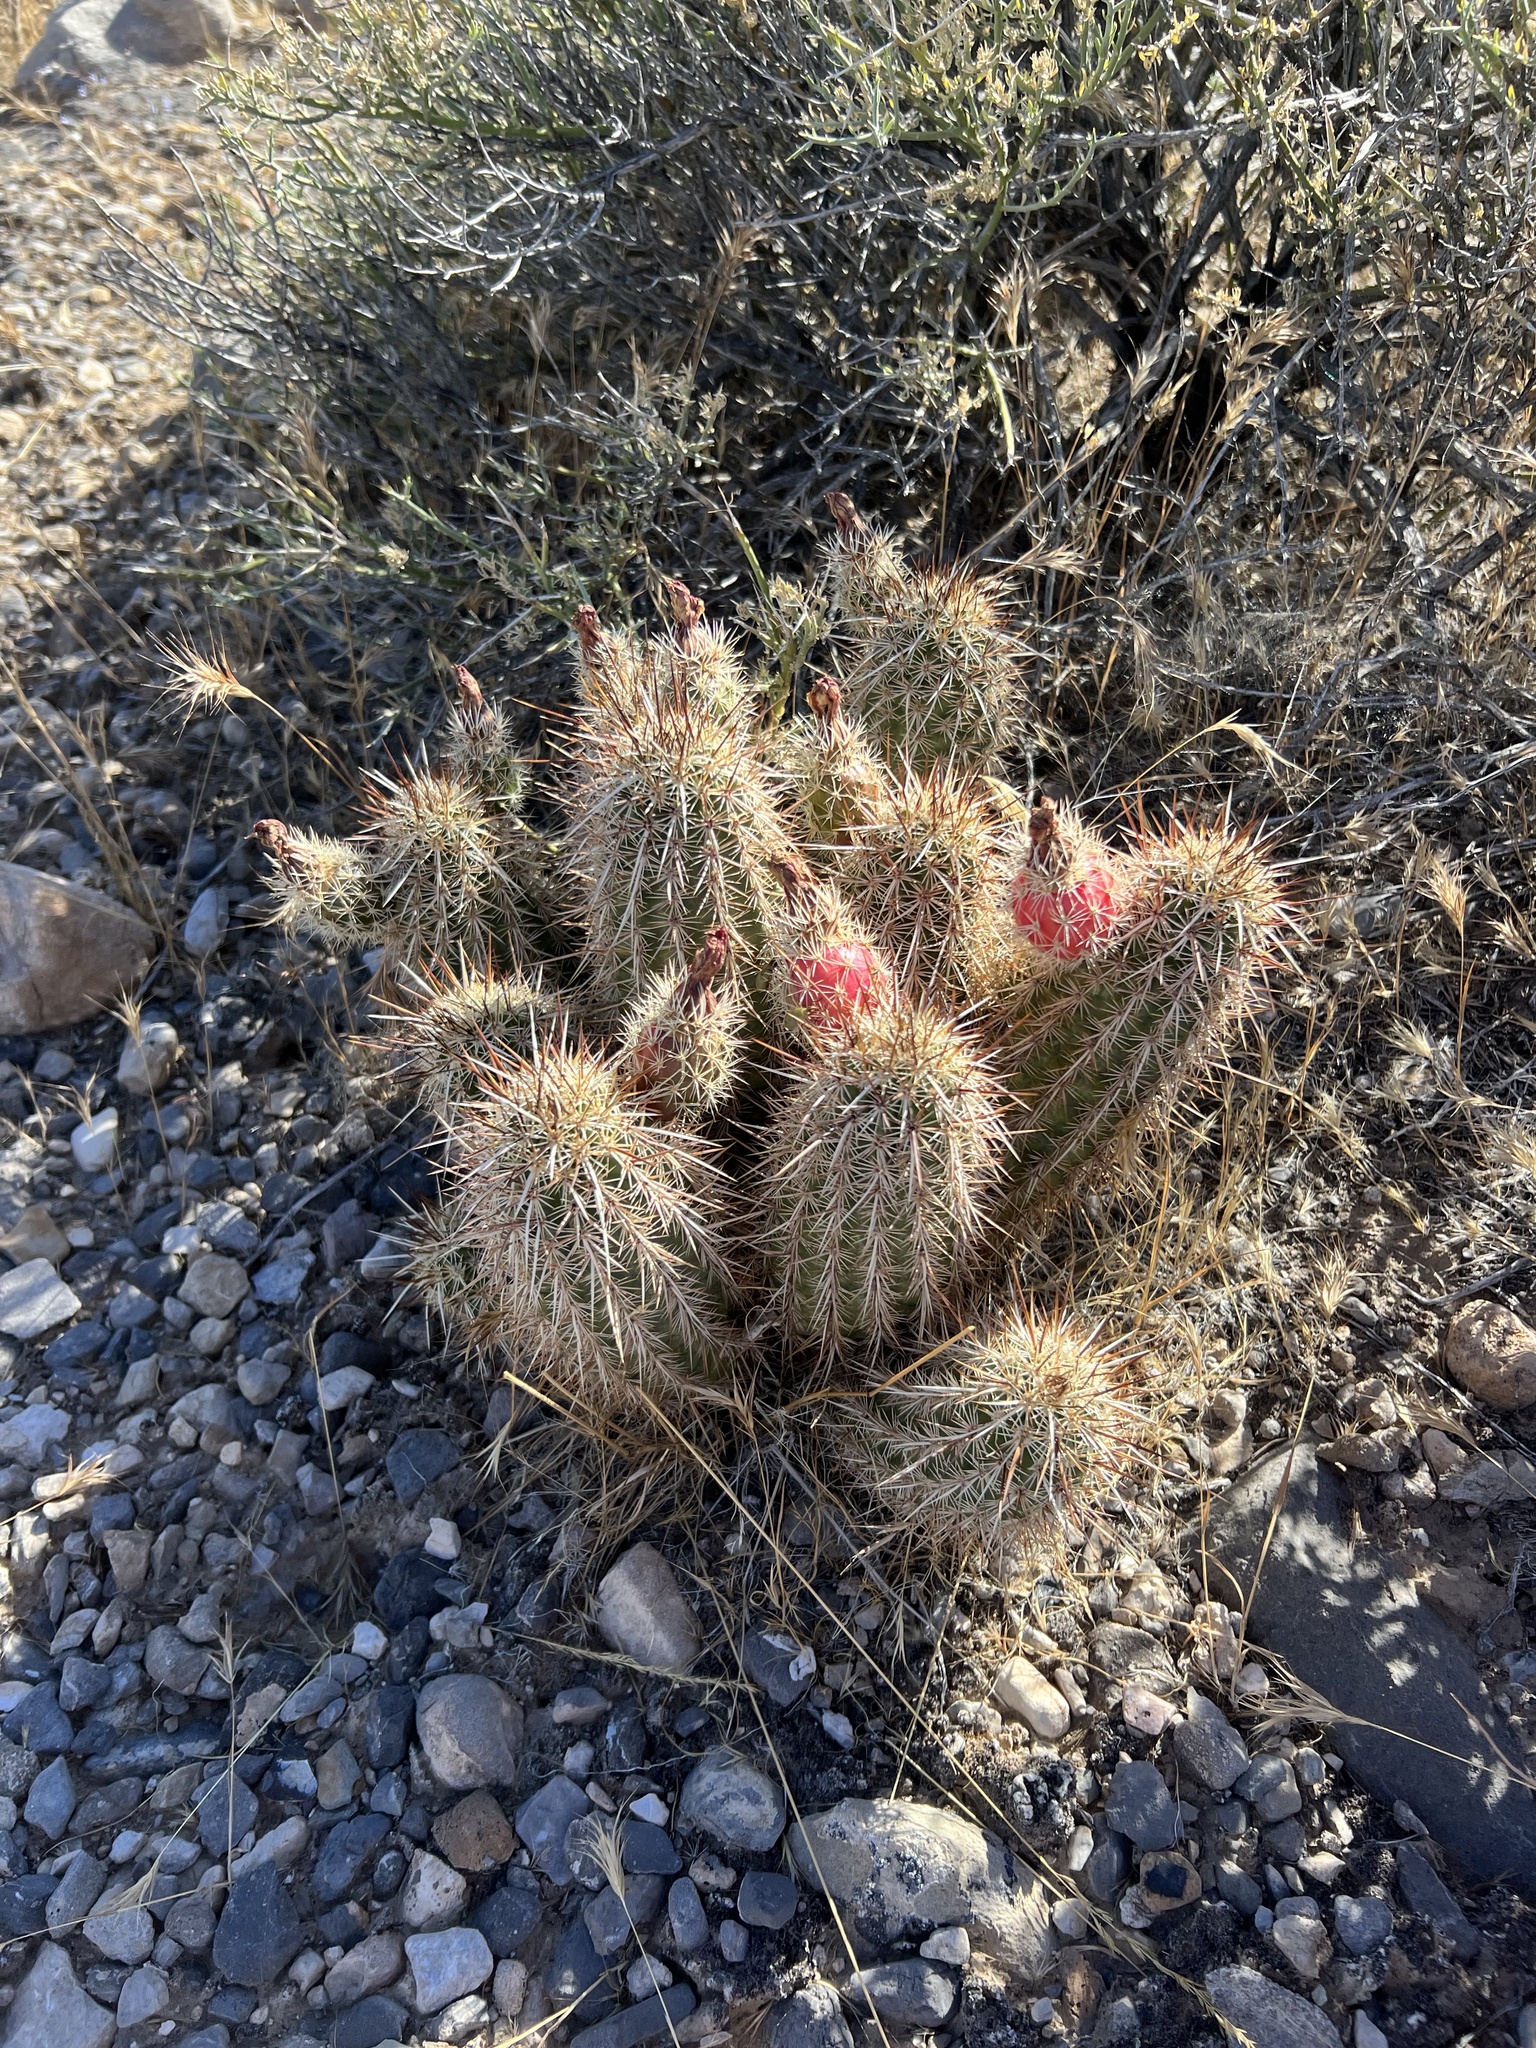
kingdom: Plantae
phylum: Tracheophyta
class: Magnoliopsida
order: Caryophyllales
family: Cactaceae
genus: Echinocereus
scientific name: Echinocereus engelmannii
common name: Engelmann's hedgehog cactus
